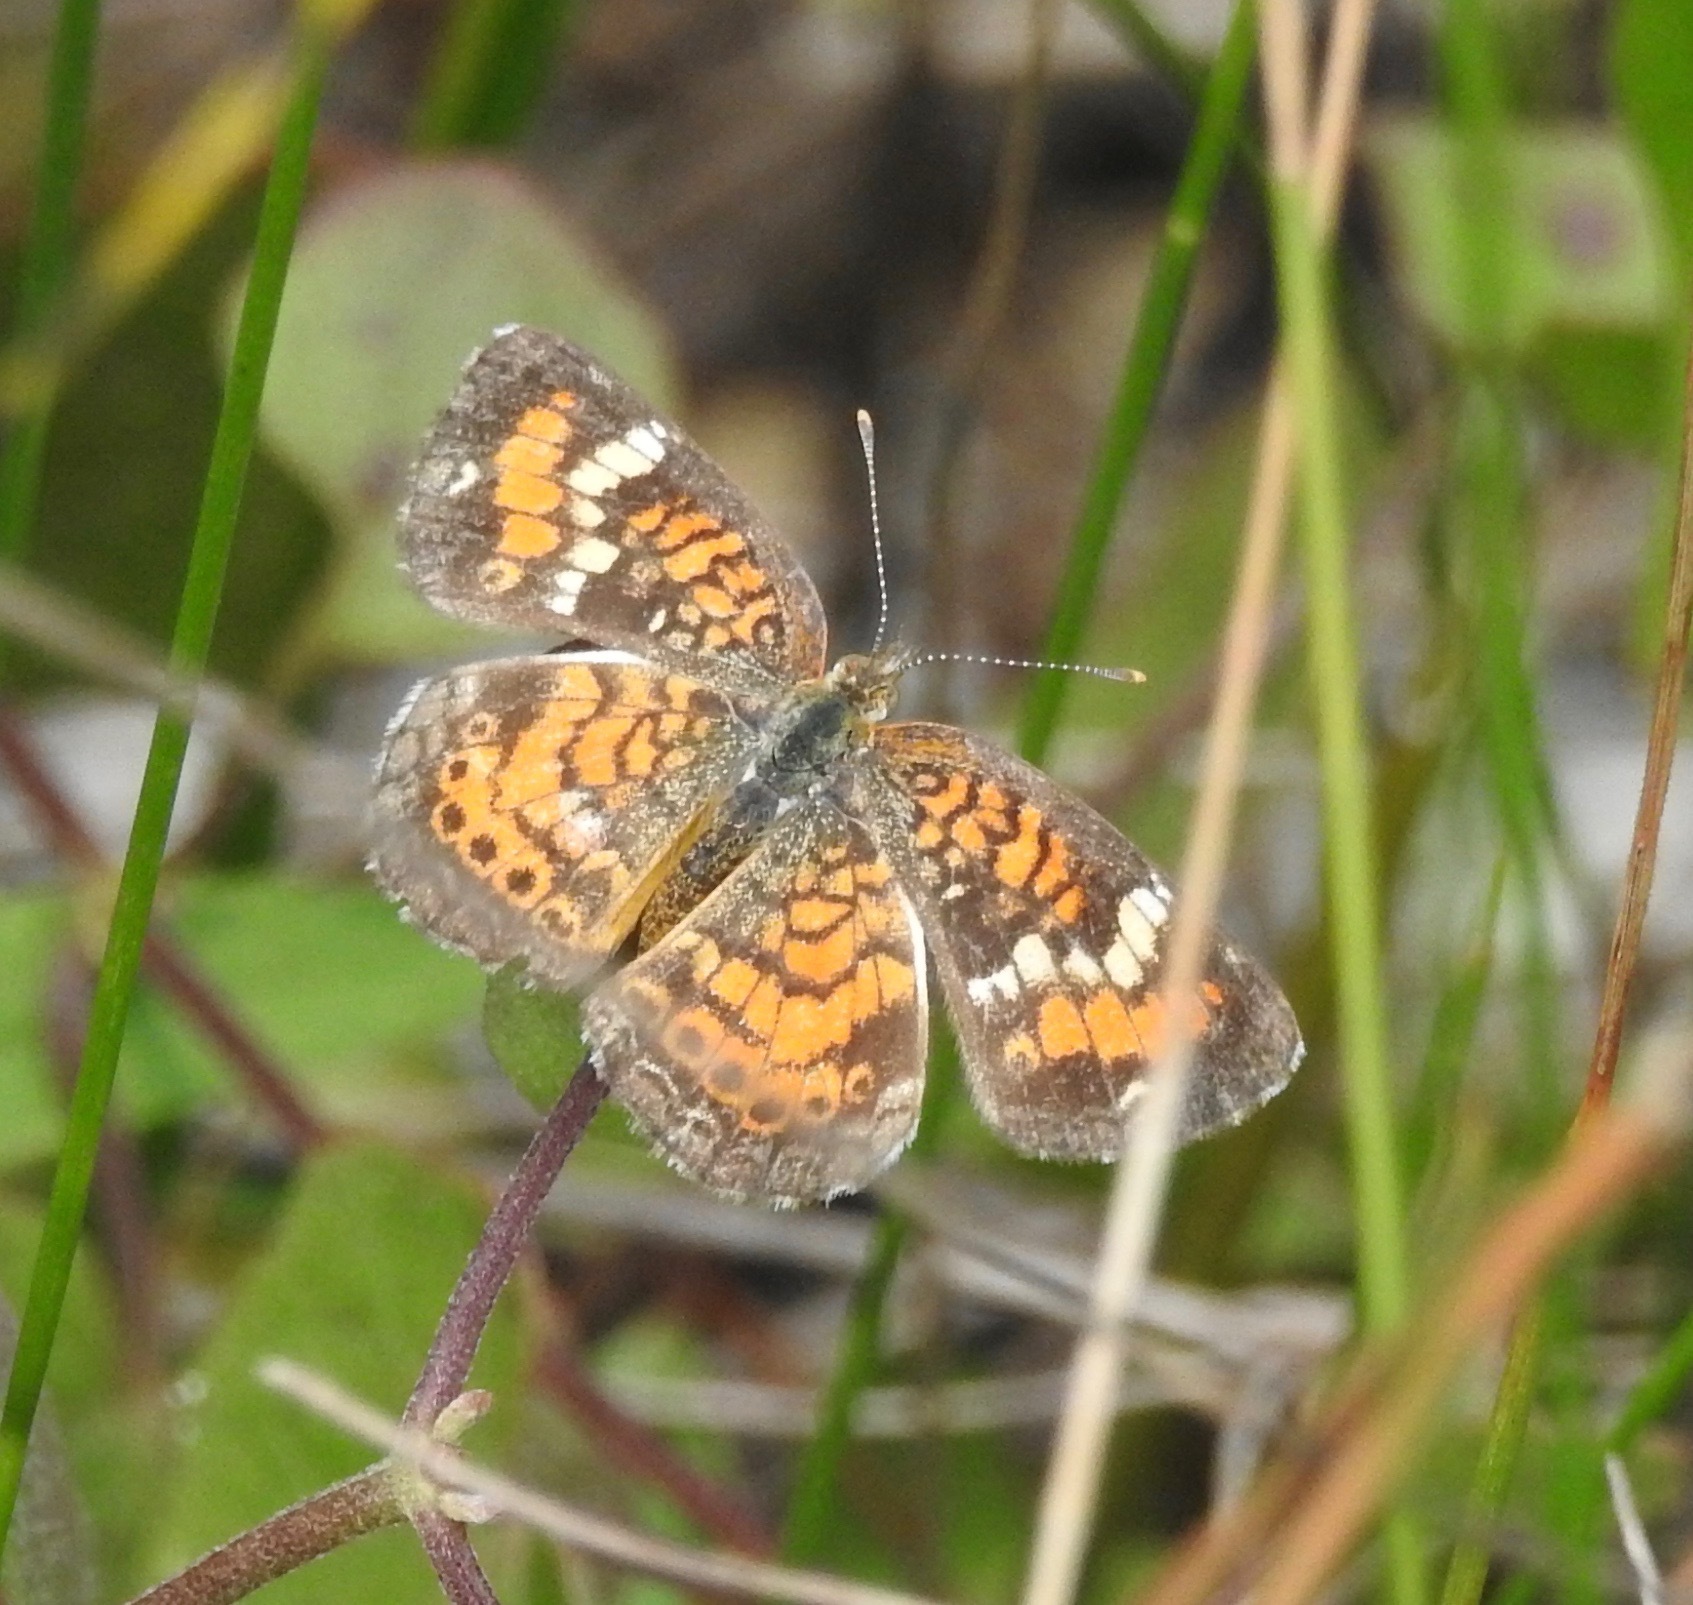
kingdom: Animalia
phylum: Arthropoda
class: Insecta
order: Lepidoptera
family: Nymphalidae
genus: Phyciodes
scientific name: Phyciodes phaon
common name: Phaon crescent
